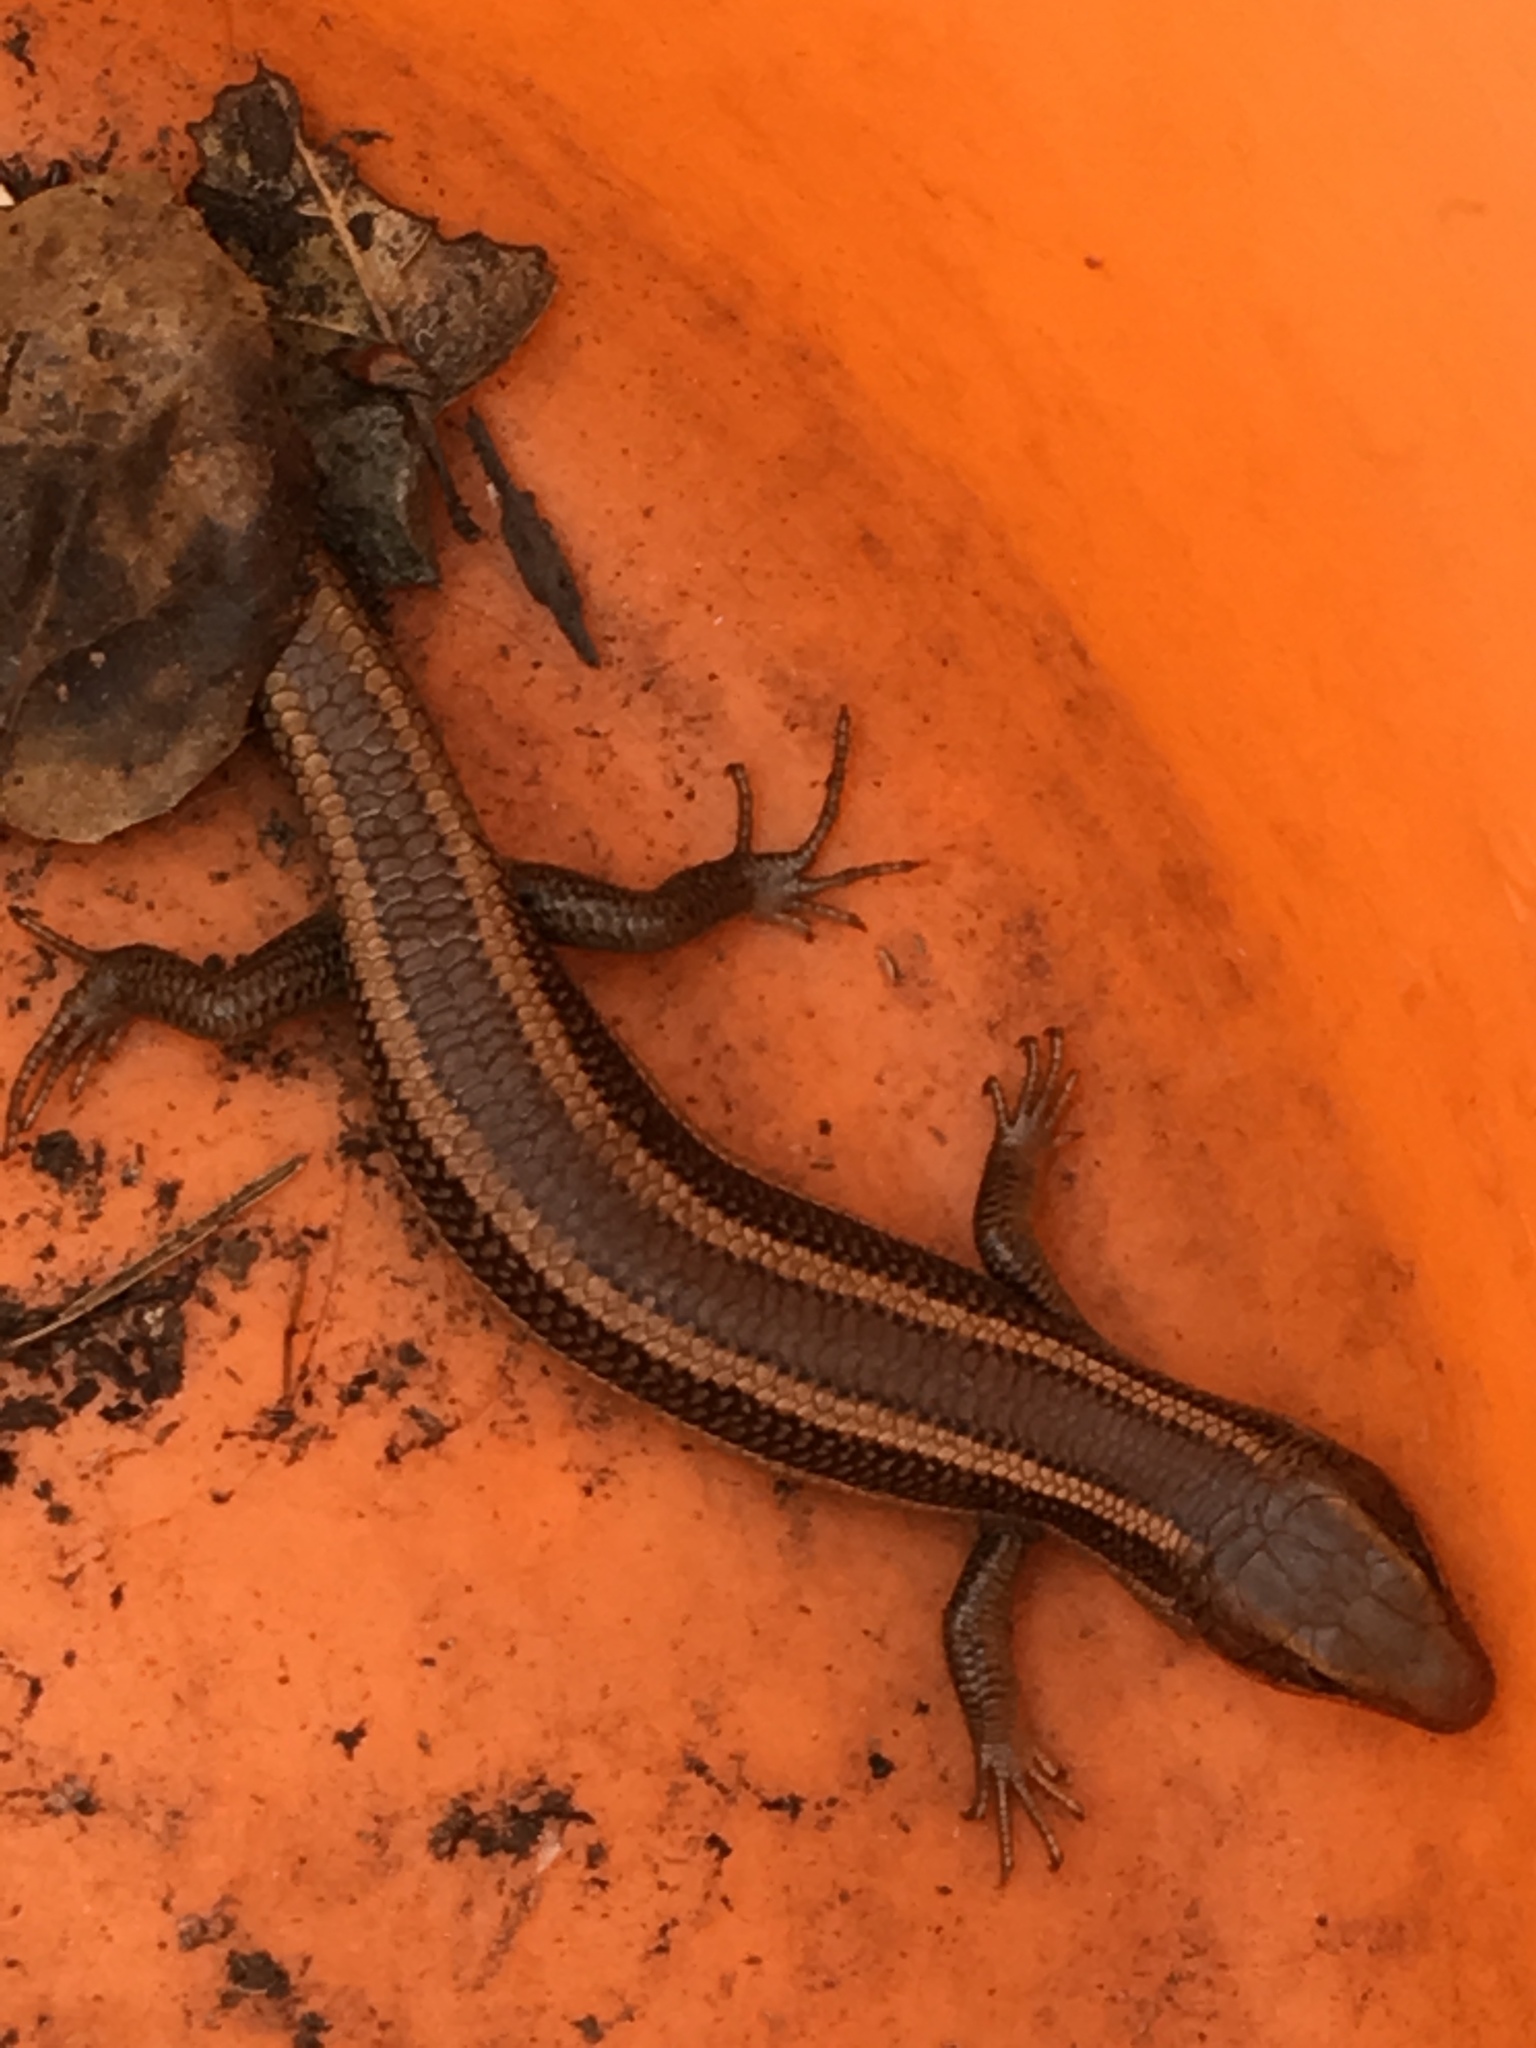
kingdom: Animalia
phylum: Chordata
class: Squamata
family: Scincidae
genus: Plestiodon
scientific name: Plestiodon skiltonianus
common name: Coronado island skink [interparietalis]
